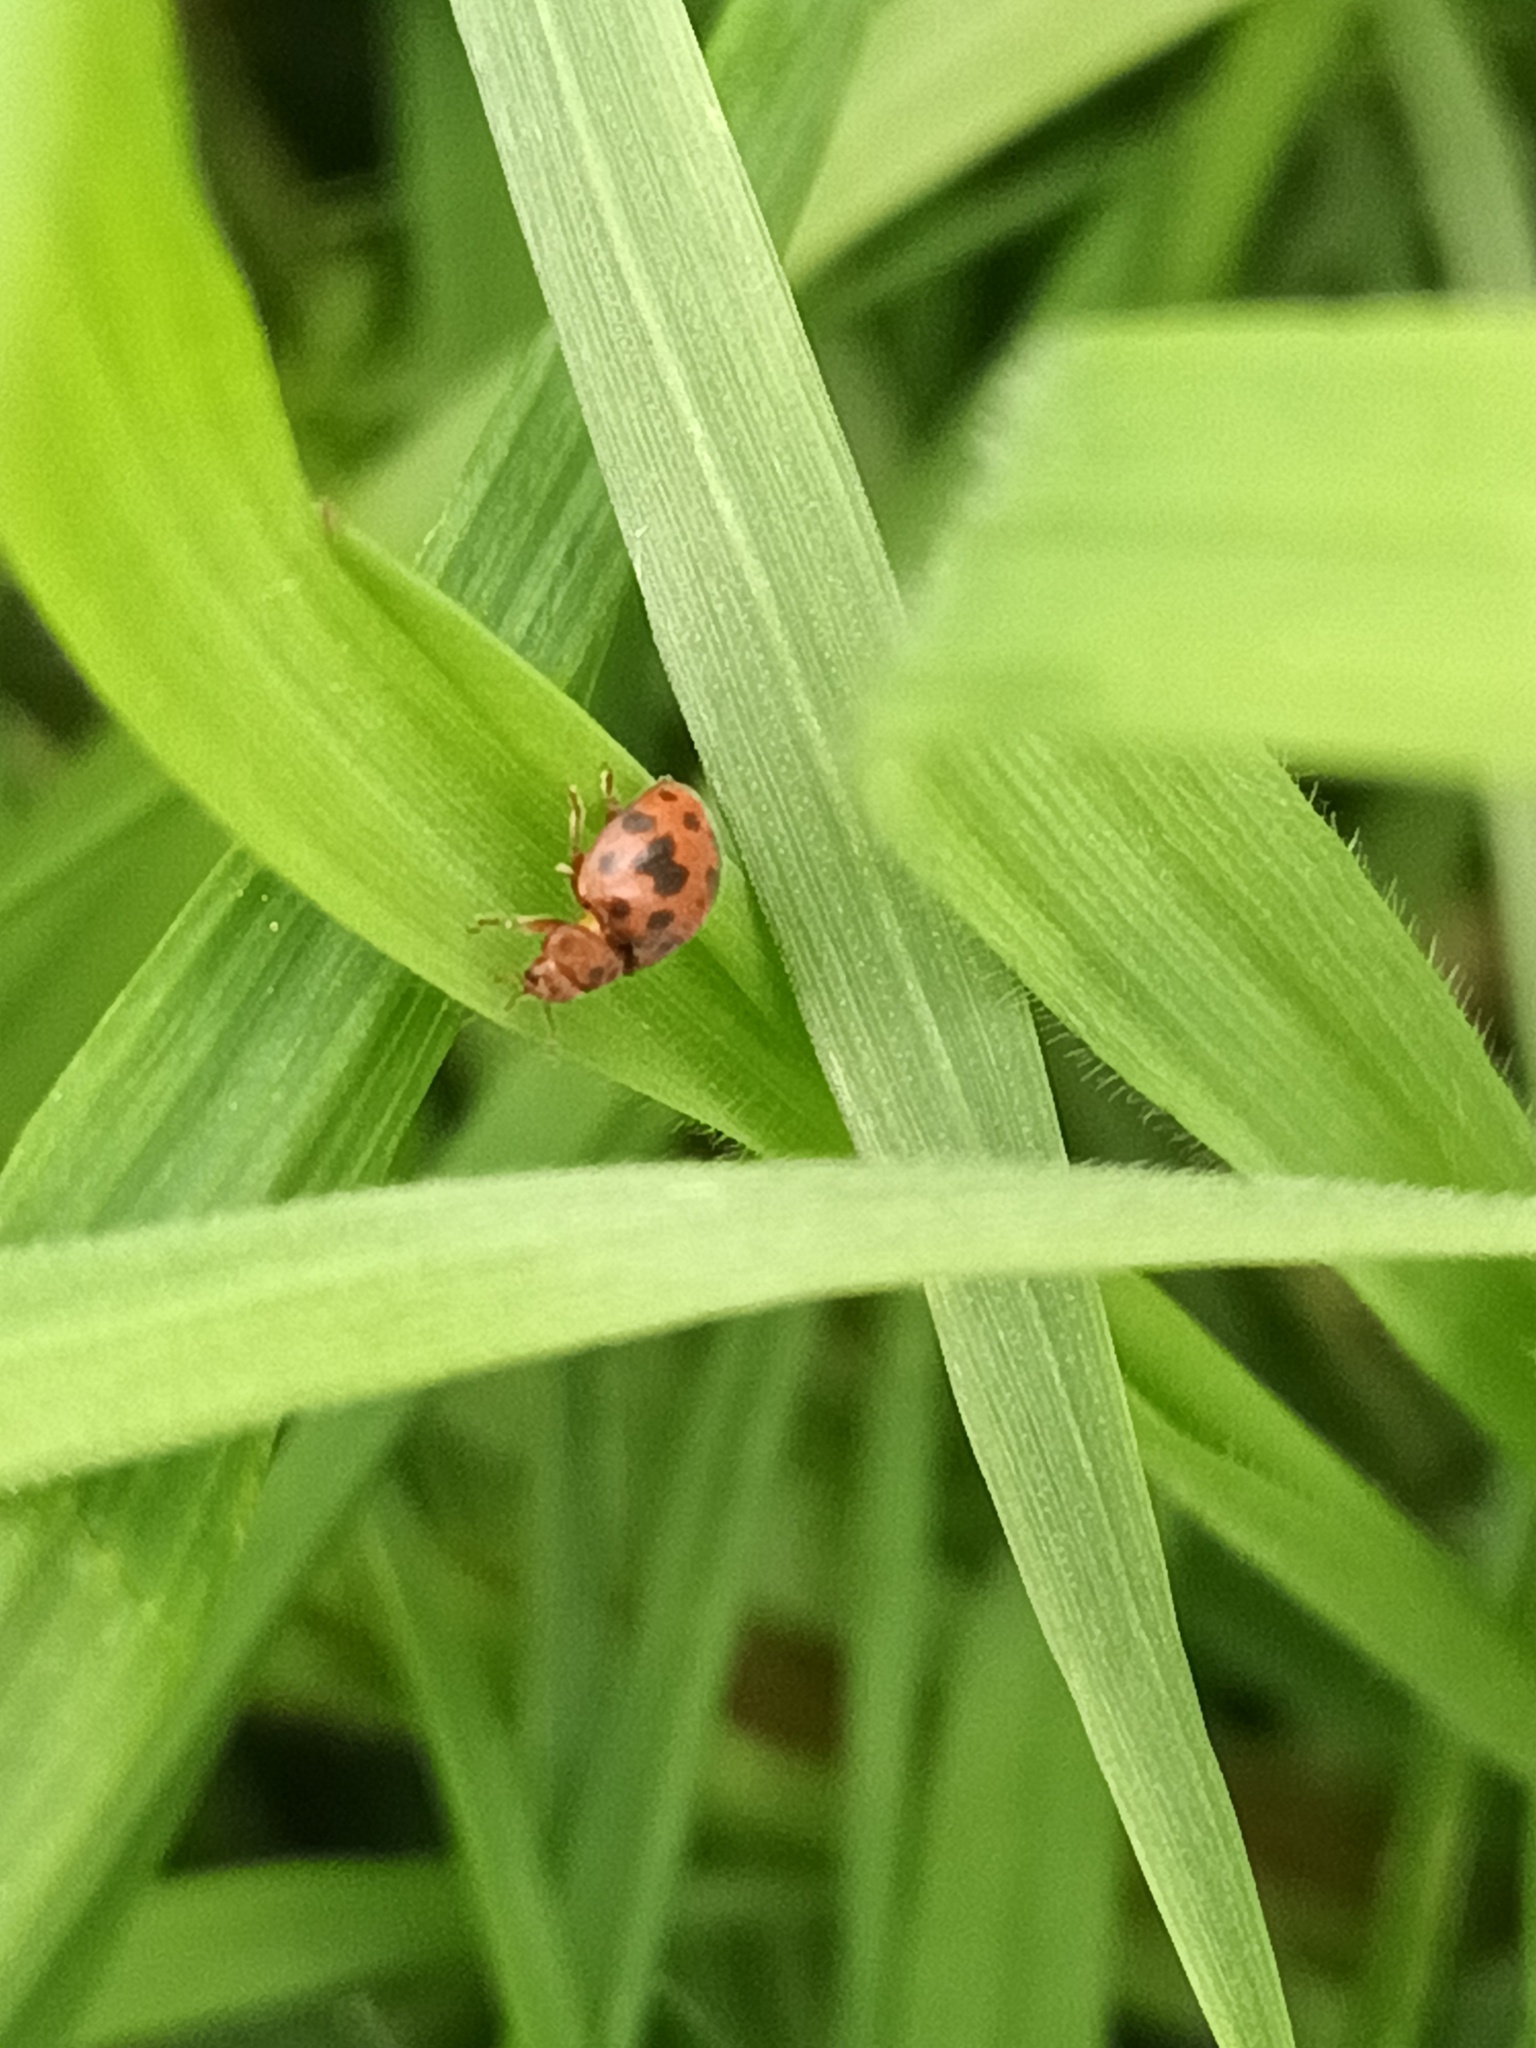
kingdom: Animalia
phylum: Arthropoda
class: Insecta
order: Coleoptera
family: Coccinellidae
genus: Subcoccinella
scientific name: Subcoccinella vigintiquatuorpunctata
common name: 24-spot ladybird
